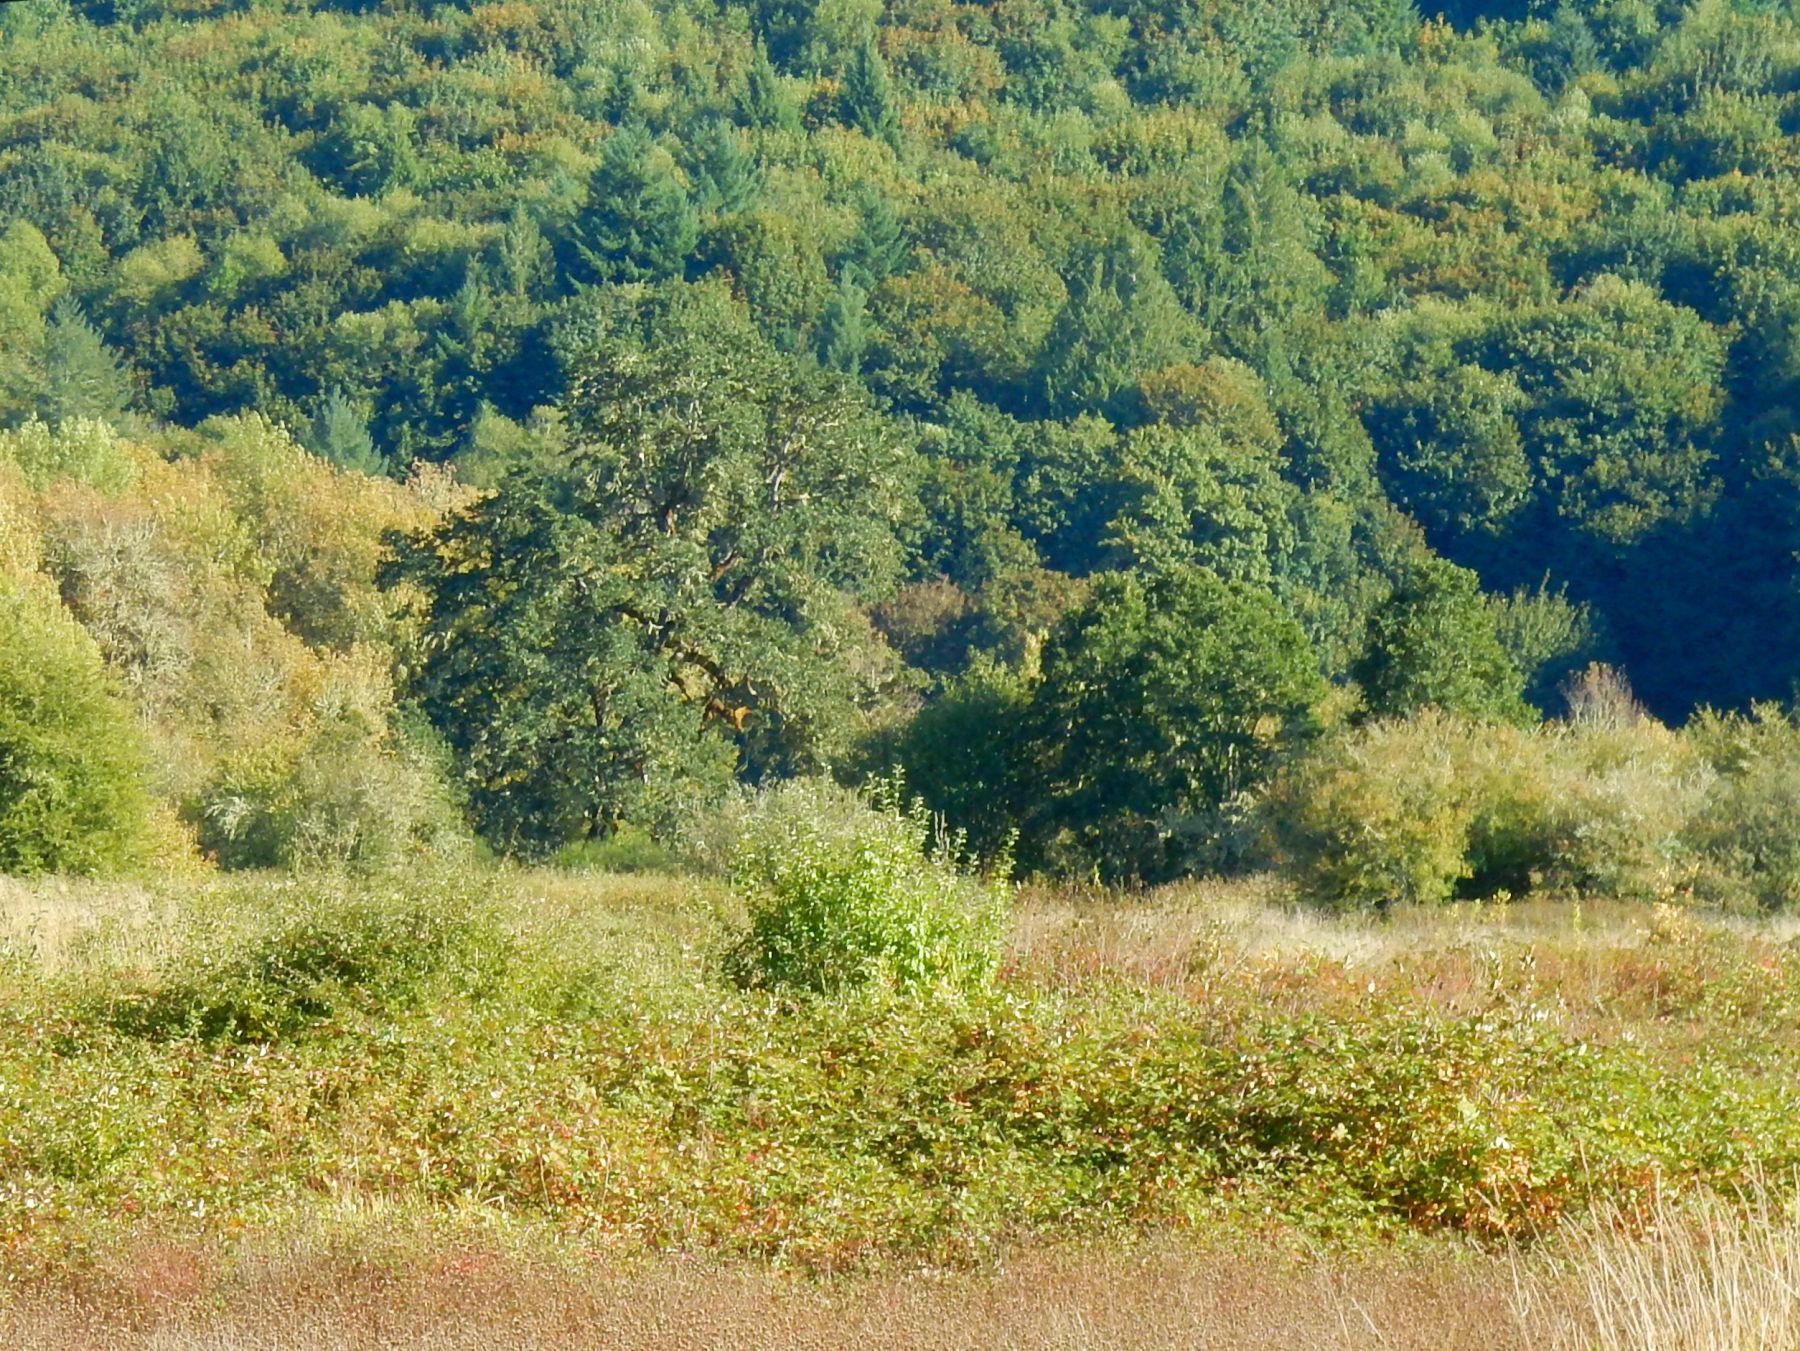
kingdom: Plantae
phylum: Tracheophyta
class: Magnoliopsida
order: Fagales
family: Fagaceae
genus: Quercus
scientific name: Quercus garryana
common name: Garry oak
